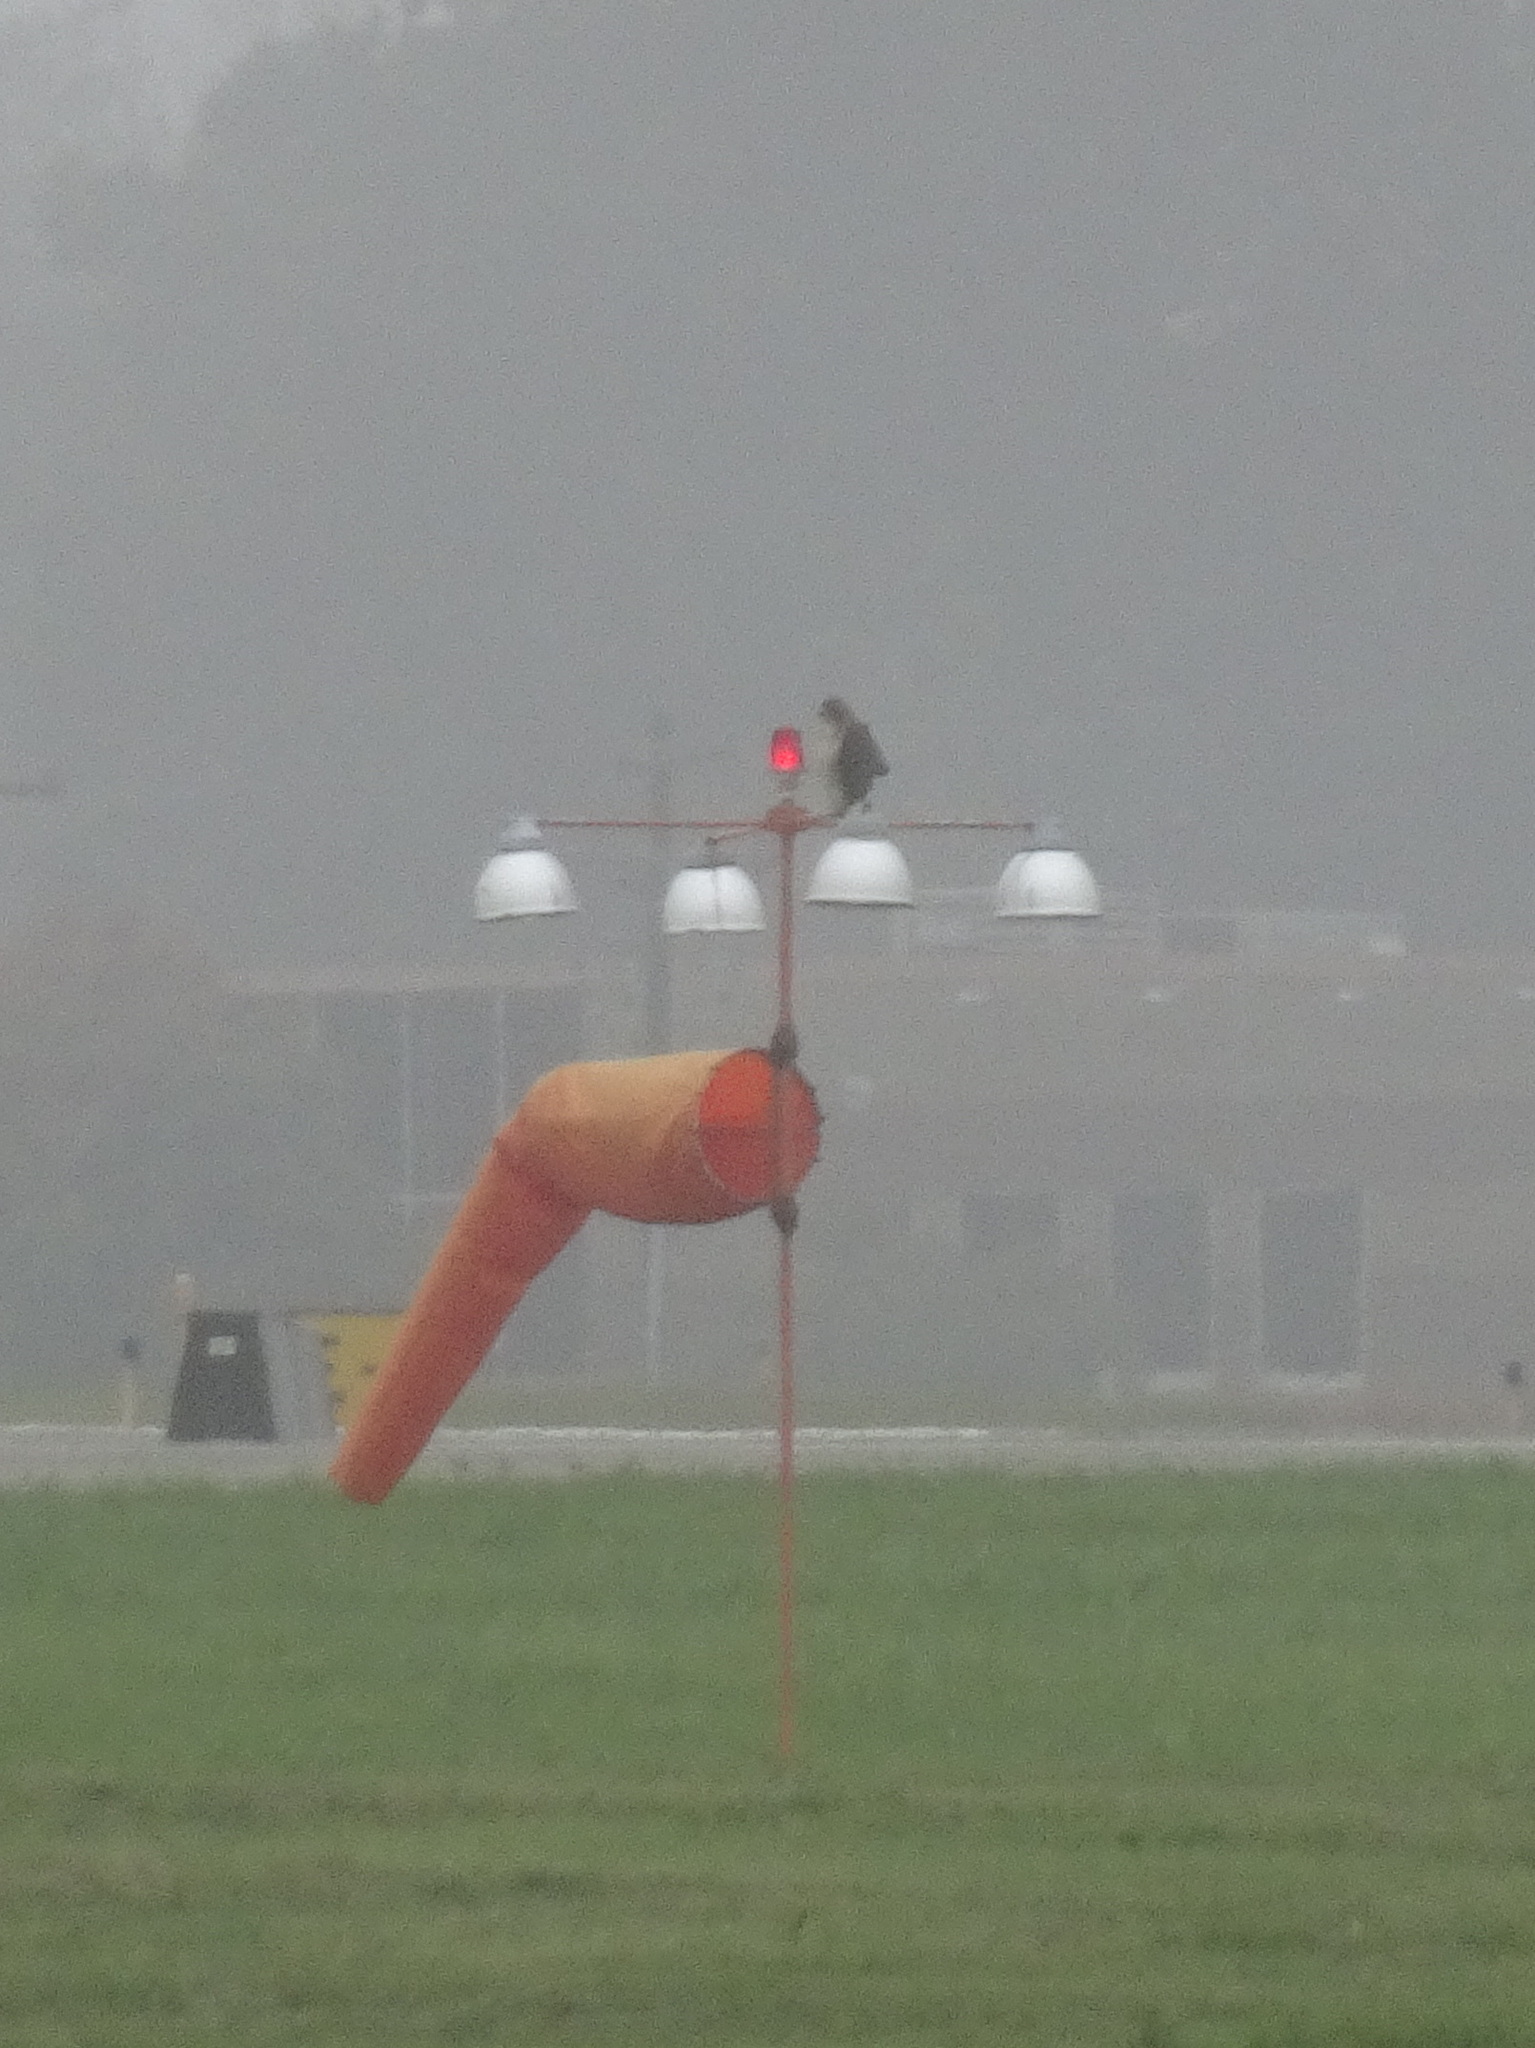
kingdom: Animalia
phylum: Chordata
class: Aves
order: Accipitriformes
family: Accipitridae
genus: Buteo
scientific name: Buteo jamaicensis
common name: Red-tailed hawk
